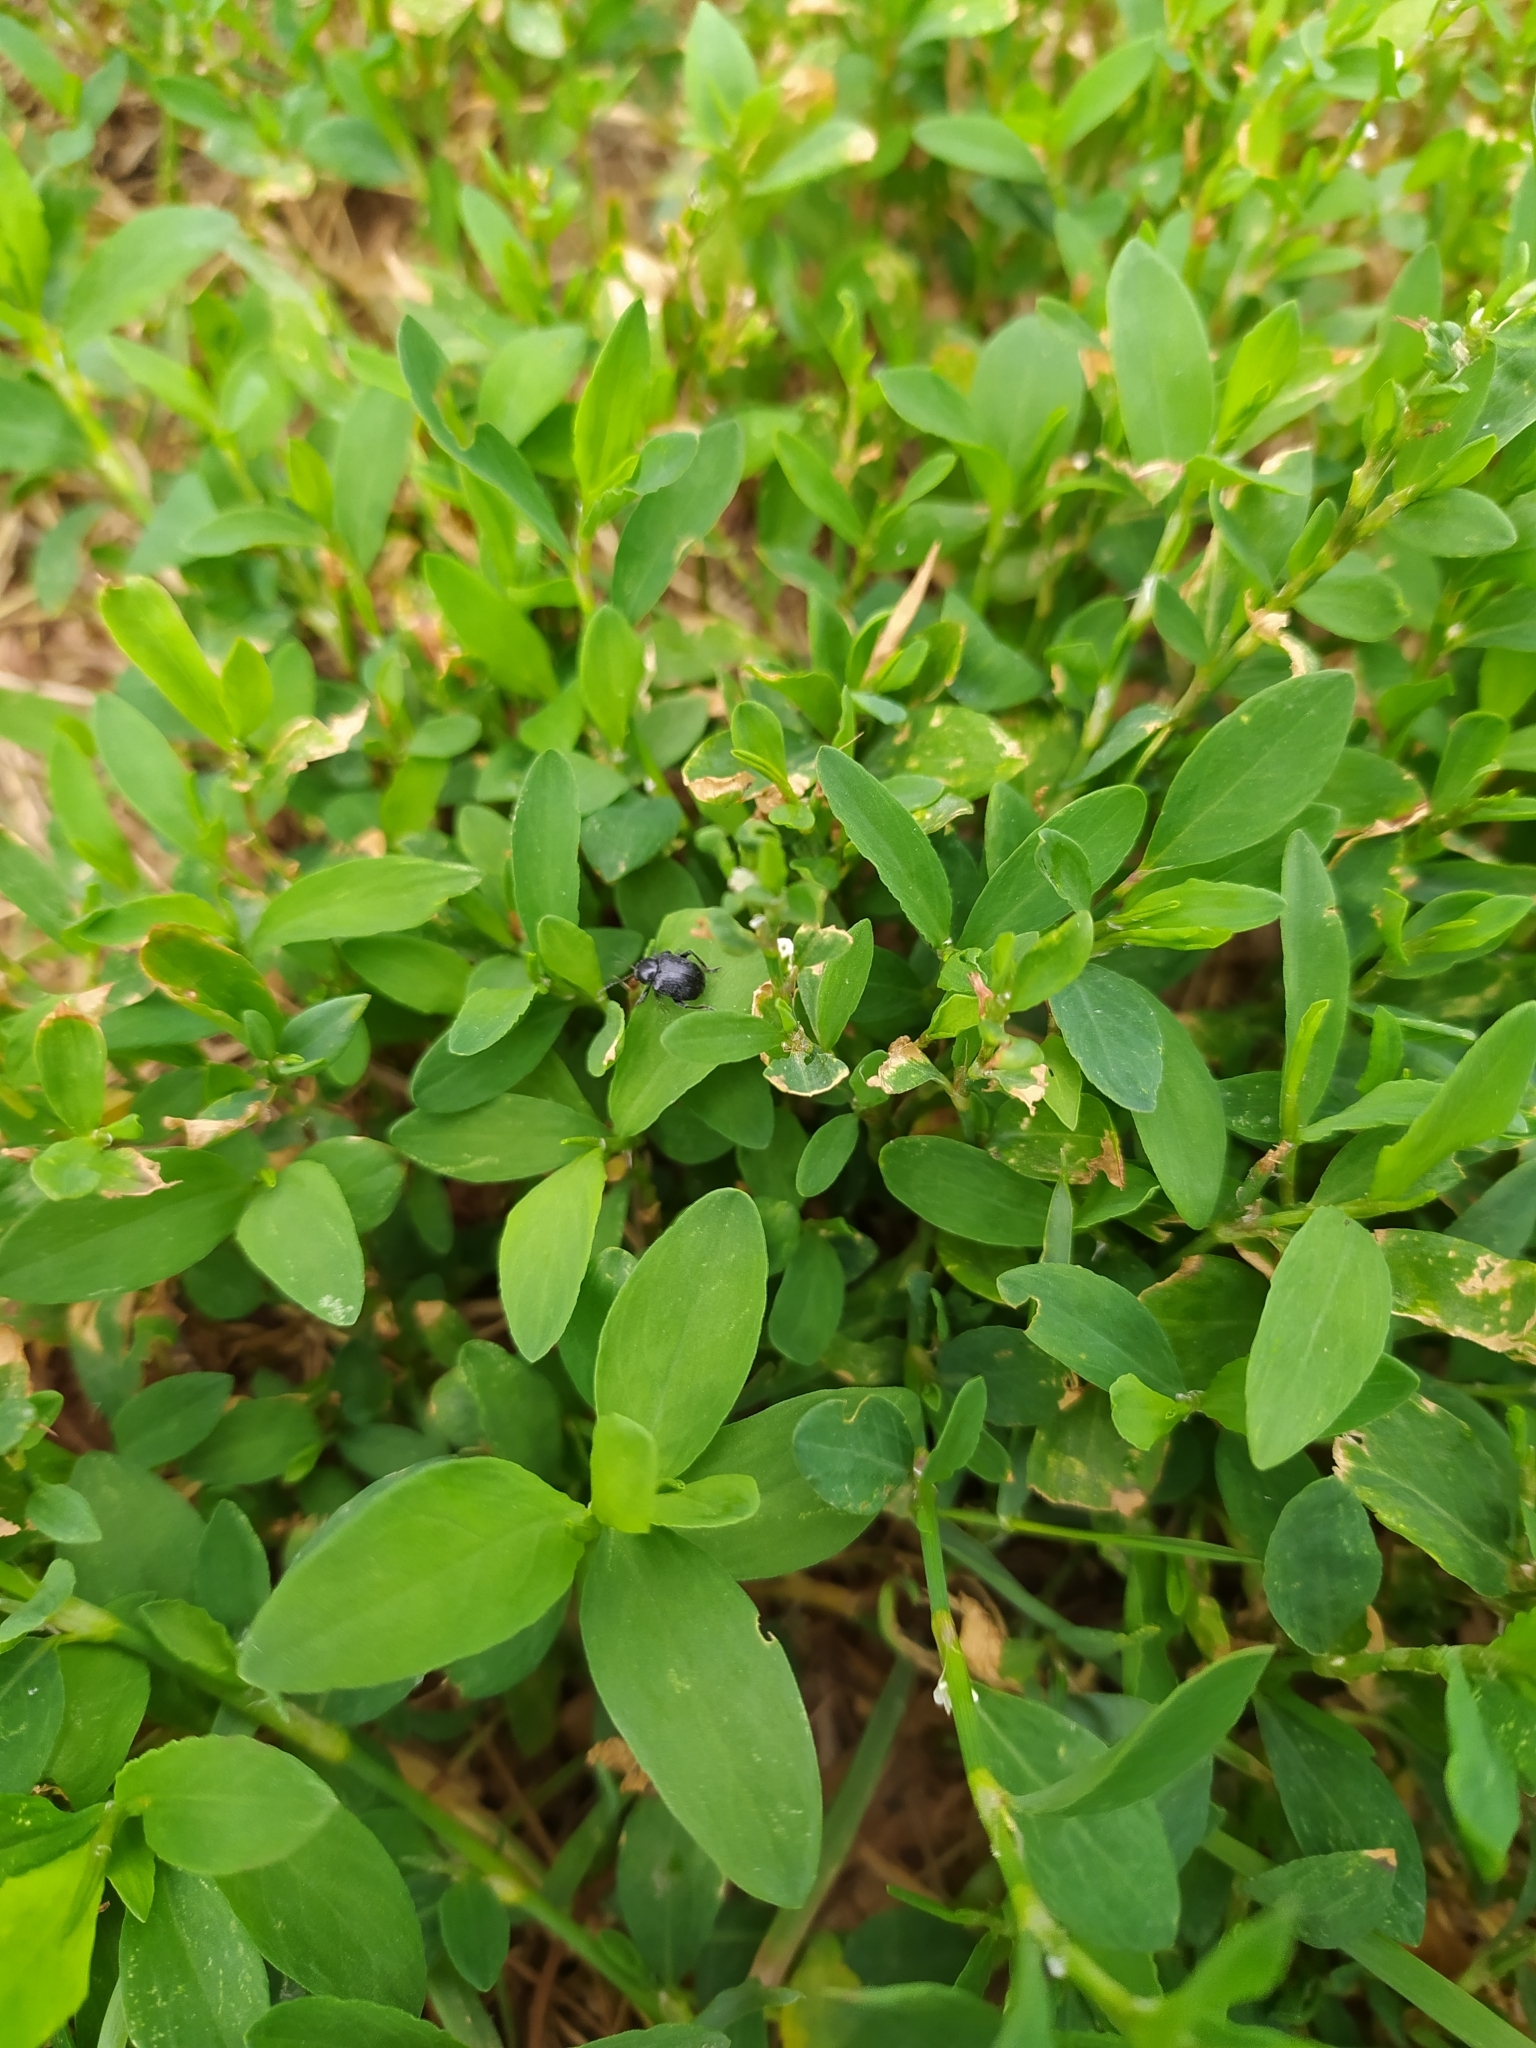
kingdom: Animalia
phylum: Arthropoda
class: Insecta
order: Coleoptera
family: Chrysomelidae
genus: Bromius
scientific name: Bromius obscurus
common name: Western grape rootworm
